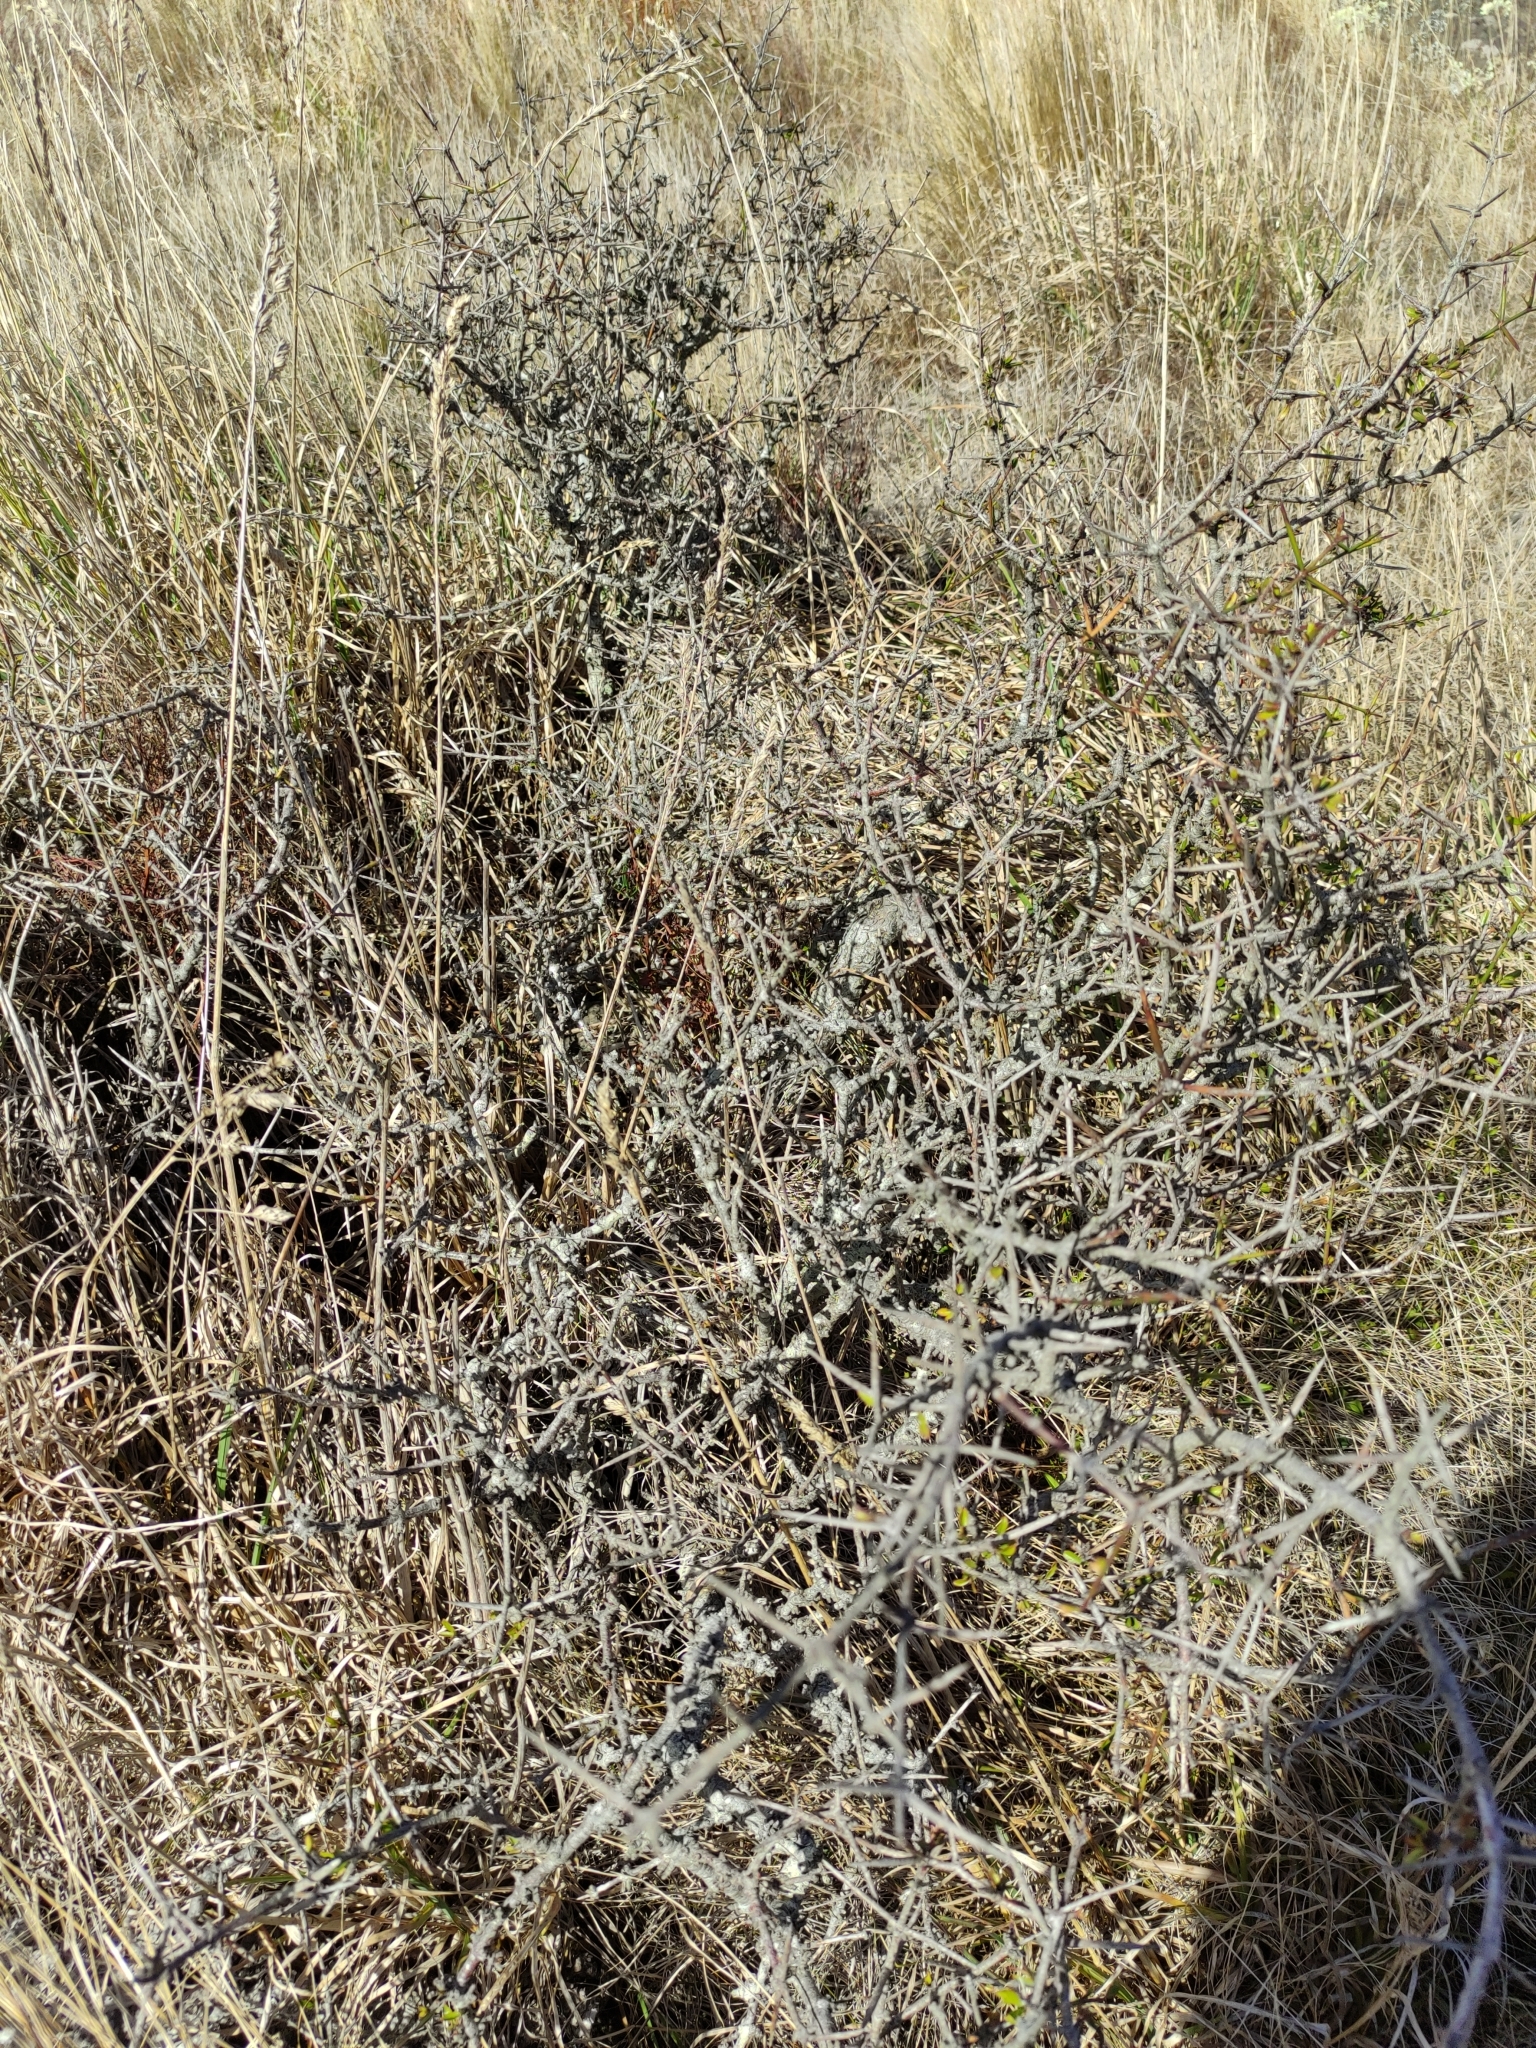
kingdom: Plantae
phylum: Tracheophyta
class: Magnoliopsida
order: Rosales
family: Rhamnaceae
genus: Discaria
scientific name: Discaria toumatou
